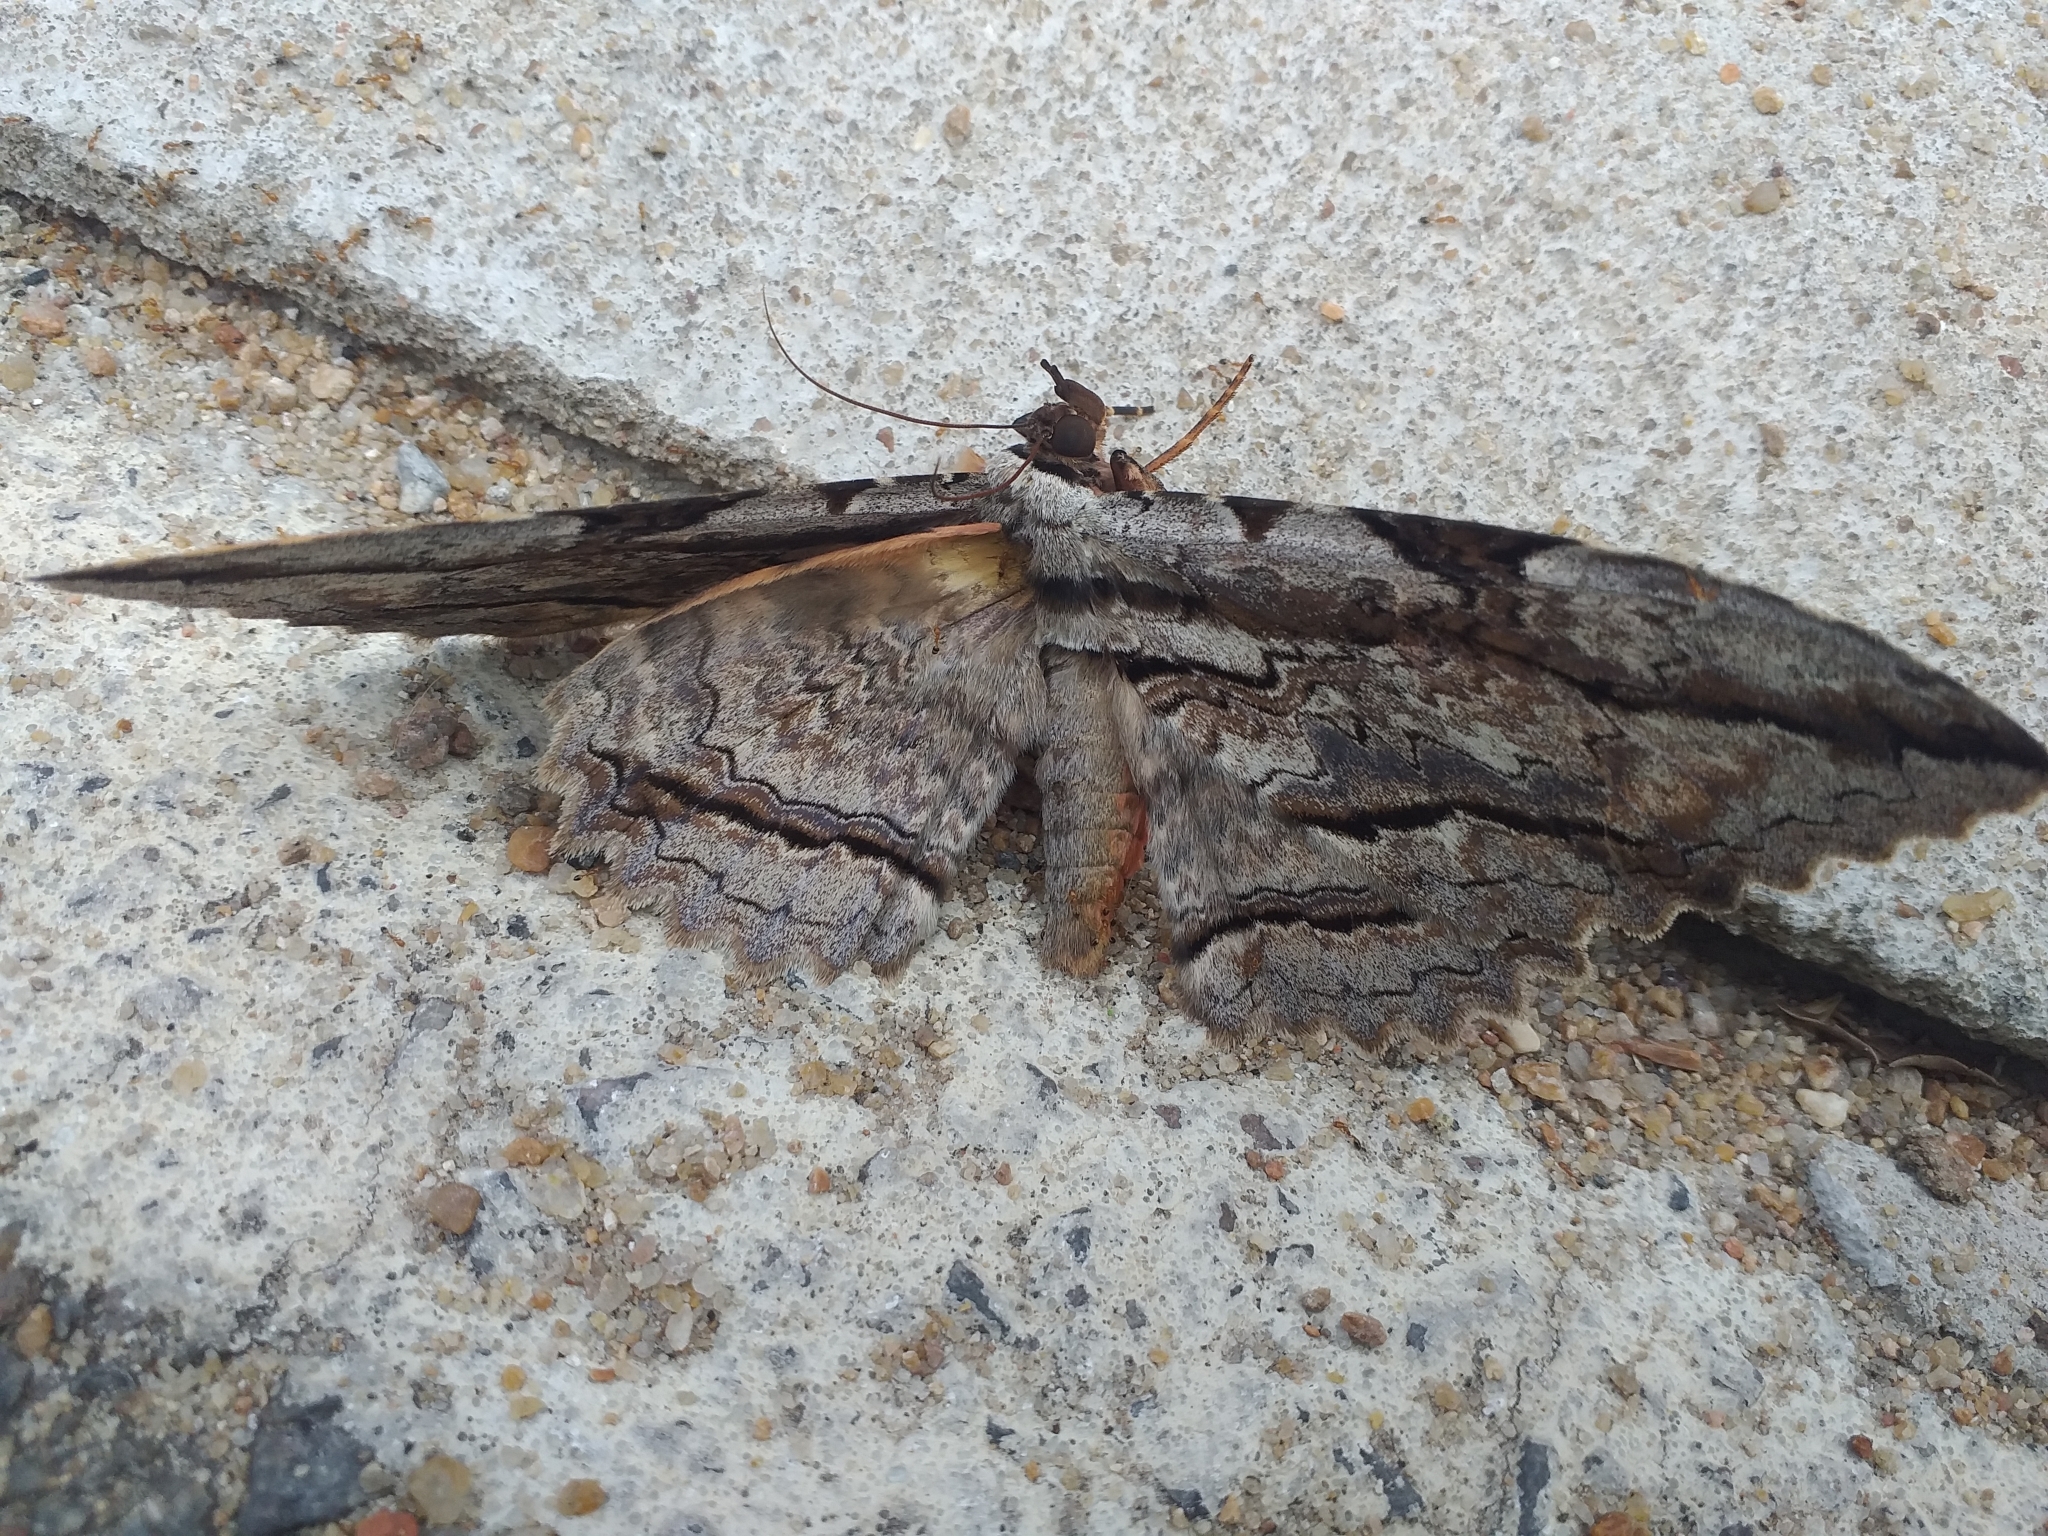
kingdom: Animalia
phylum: Arthropoda
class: Insecta
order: Lepidoptera
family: Erebidae
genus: Thysania
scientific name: Thysania zenobia
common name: Owl moth
